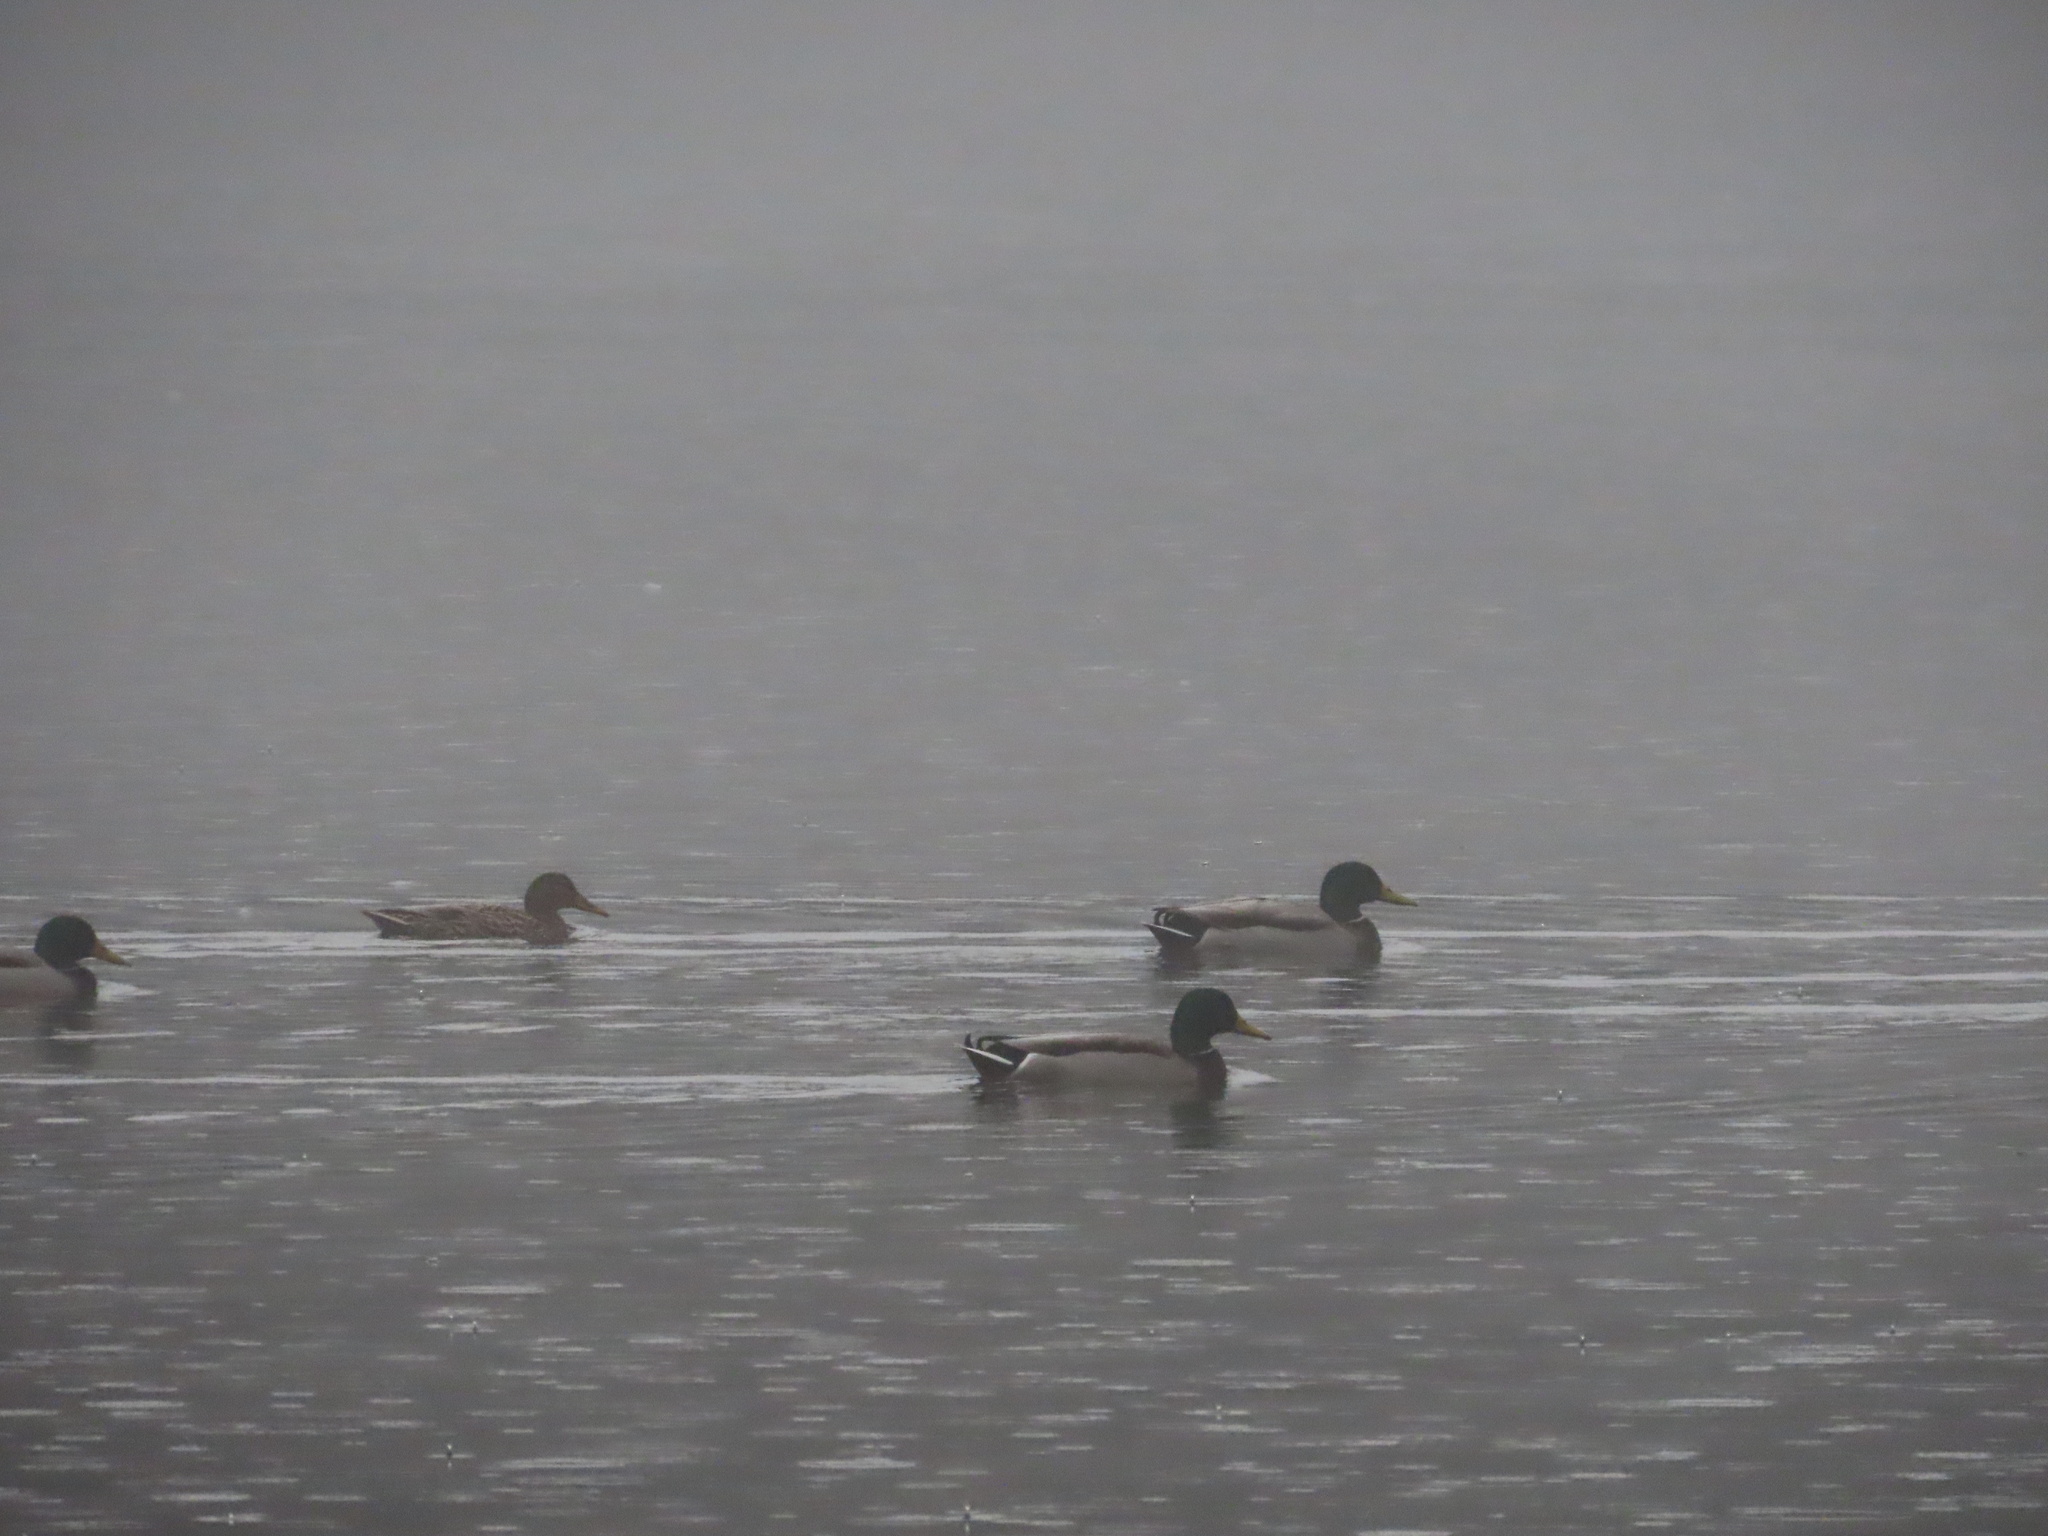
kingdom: Animalia
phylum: Chordata
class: Aves
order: Anseriformes
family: Anatidae
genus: Anas
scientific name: Anas platyrhynchos
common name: Mallard
